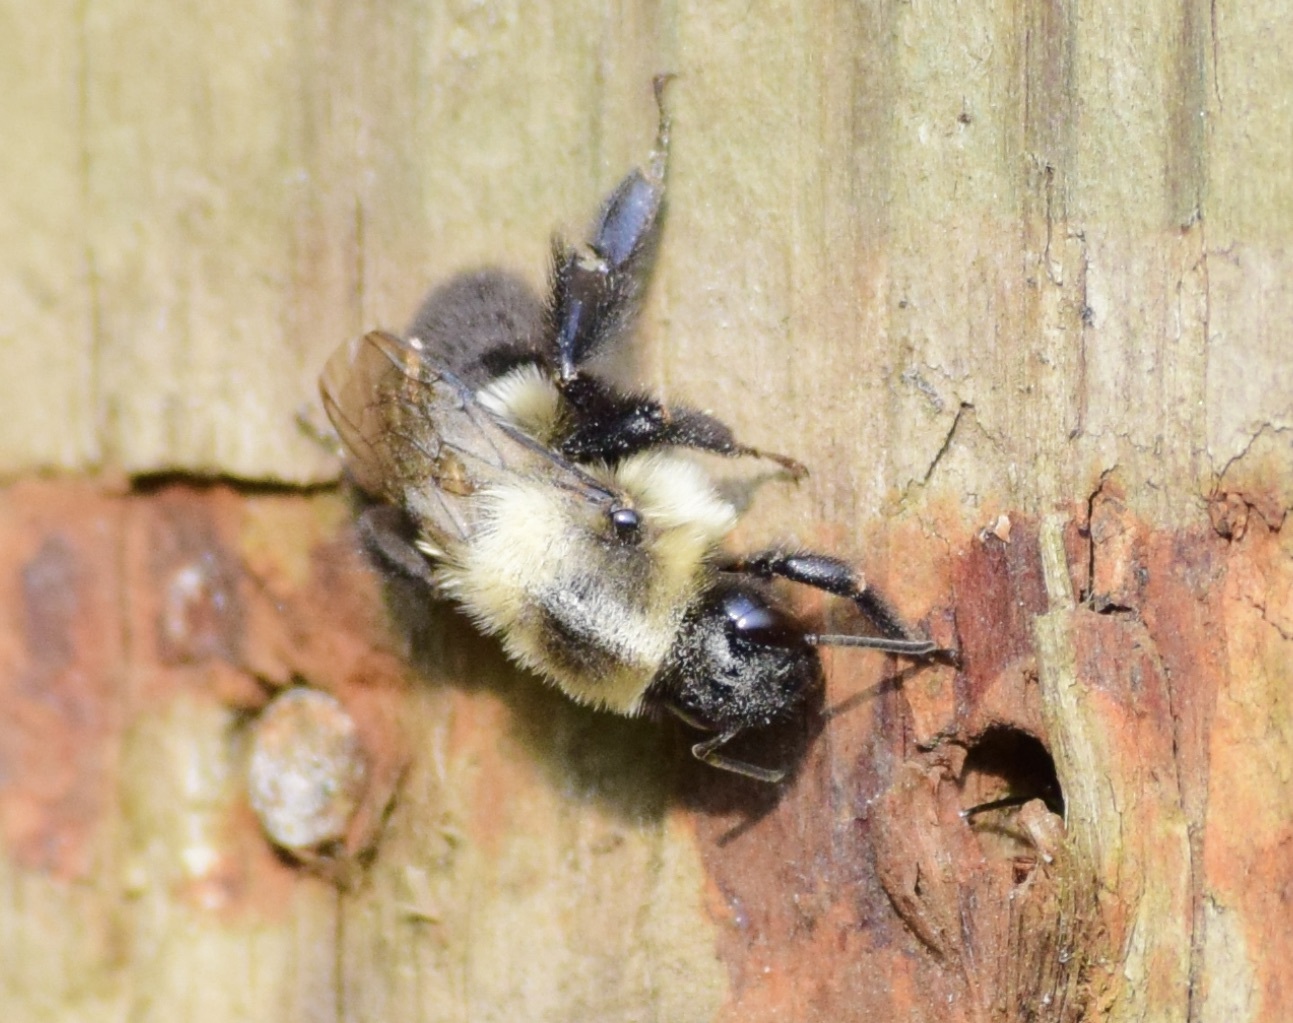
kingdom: Animalia
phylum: Arthropoda
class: Insecta
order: Hymenoptera
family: Apidae
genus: Bombus
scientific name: Bombus impatiens
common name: Common eastern bumble bee
